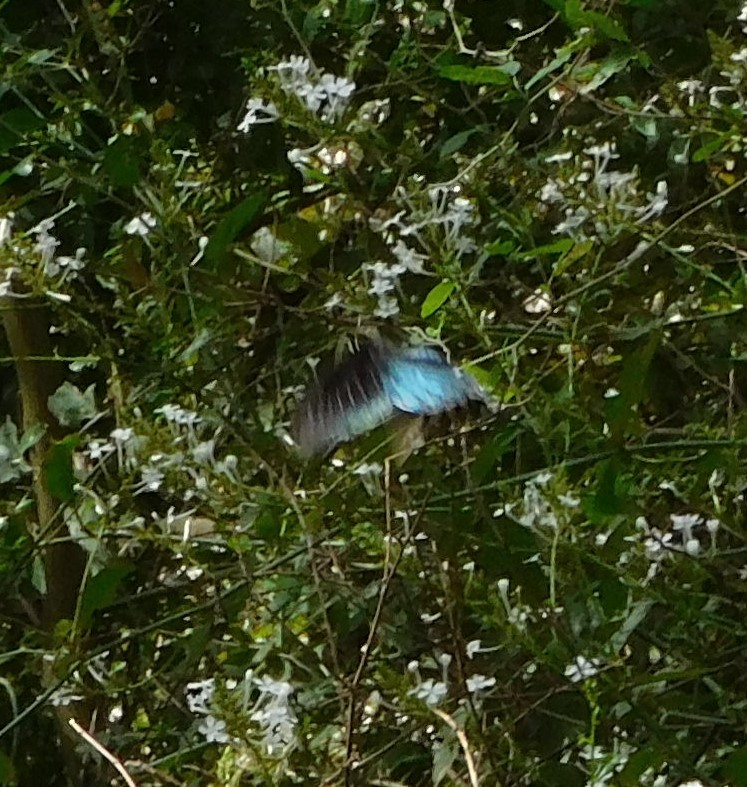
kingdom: Animalia
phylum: Arthropoda
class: Insecta
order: Lepidoptera
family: Papilionidae
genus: Battus
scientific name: Battus philenor
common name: Pipevine swallowtail
